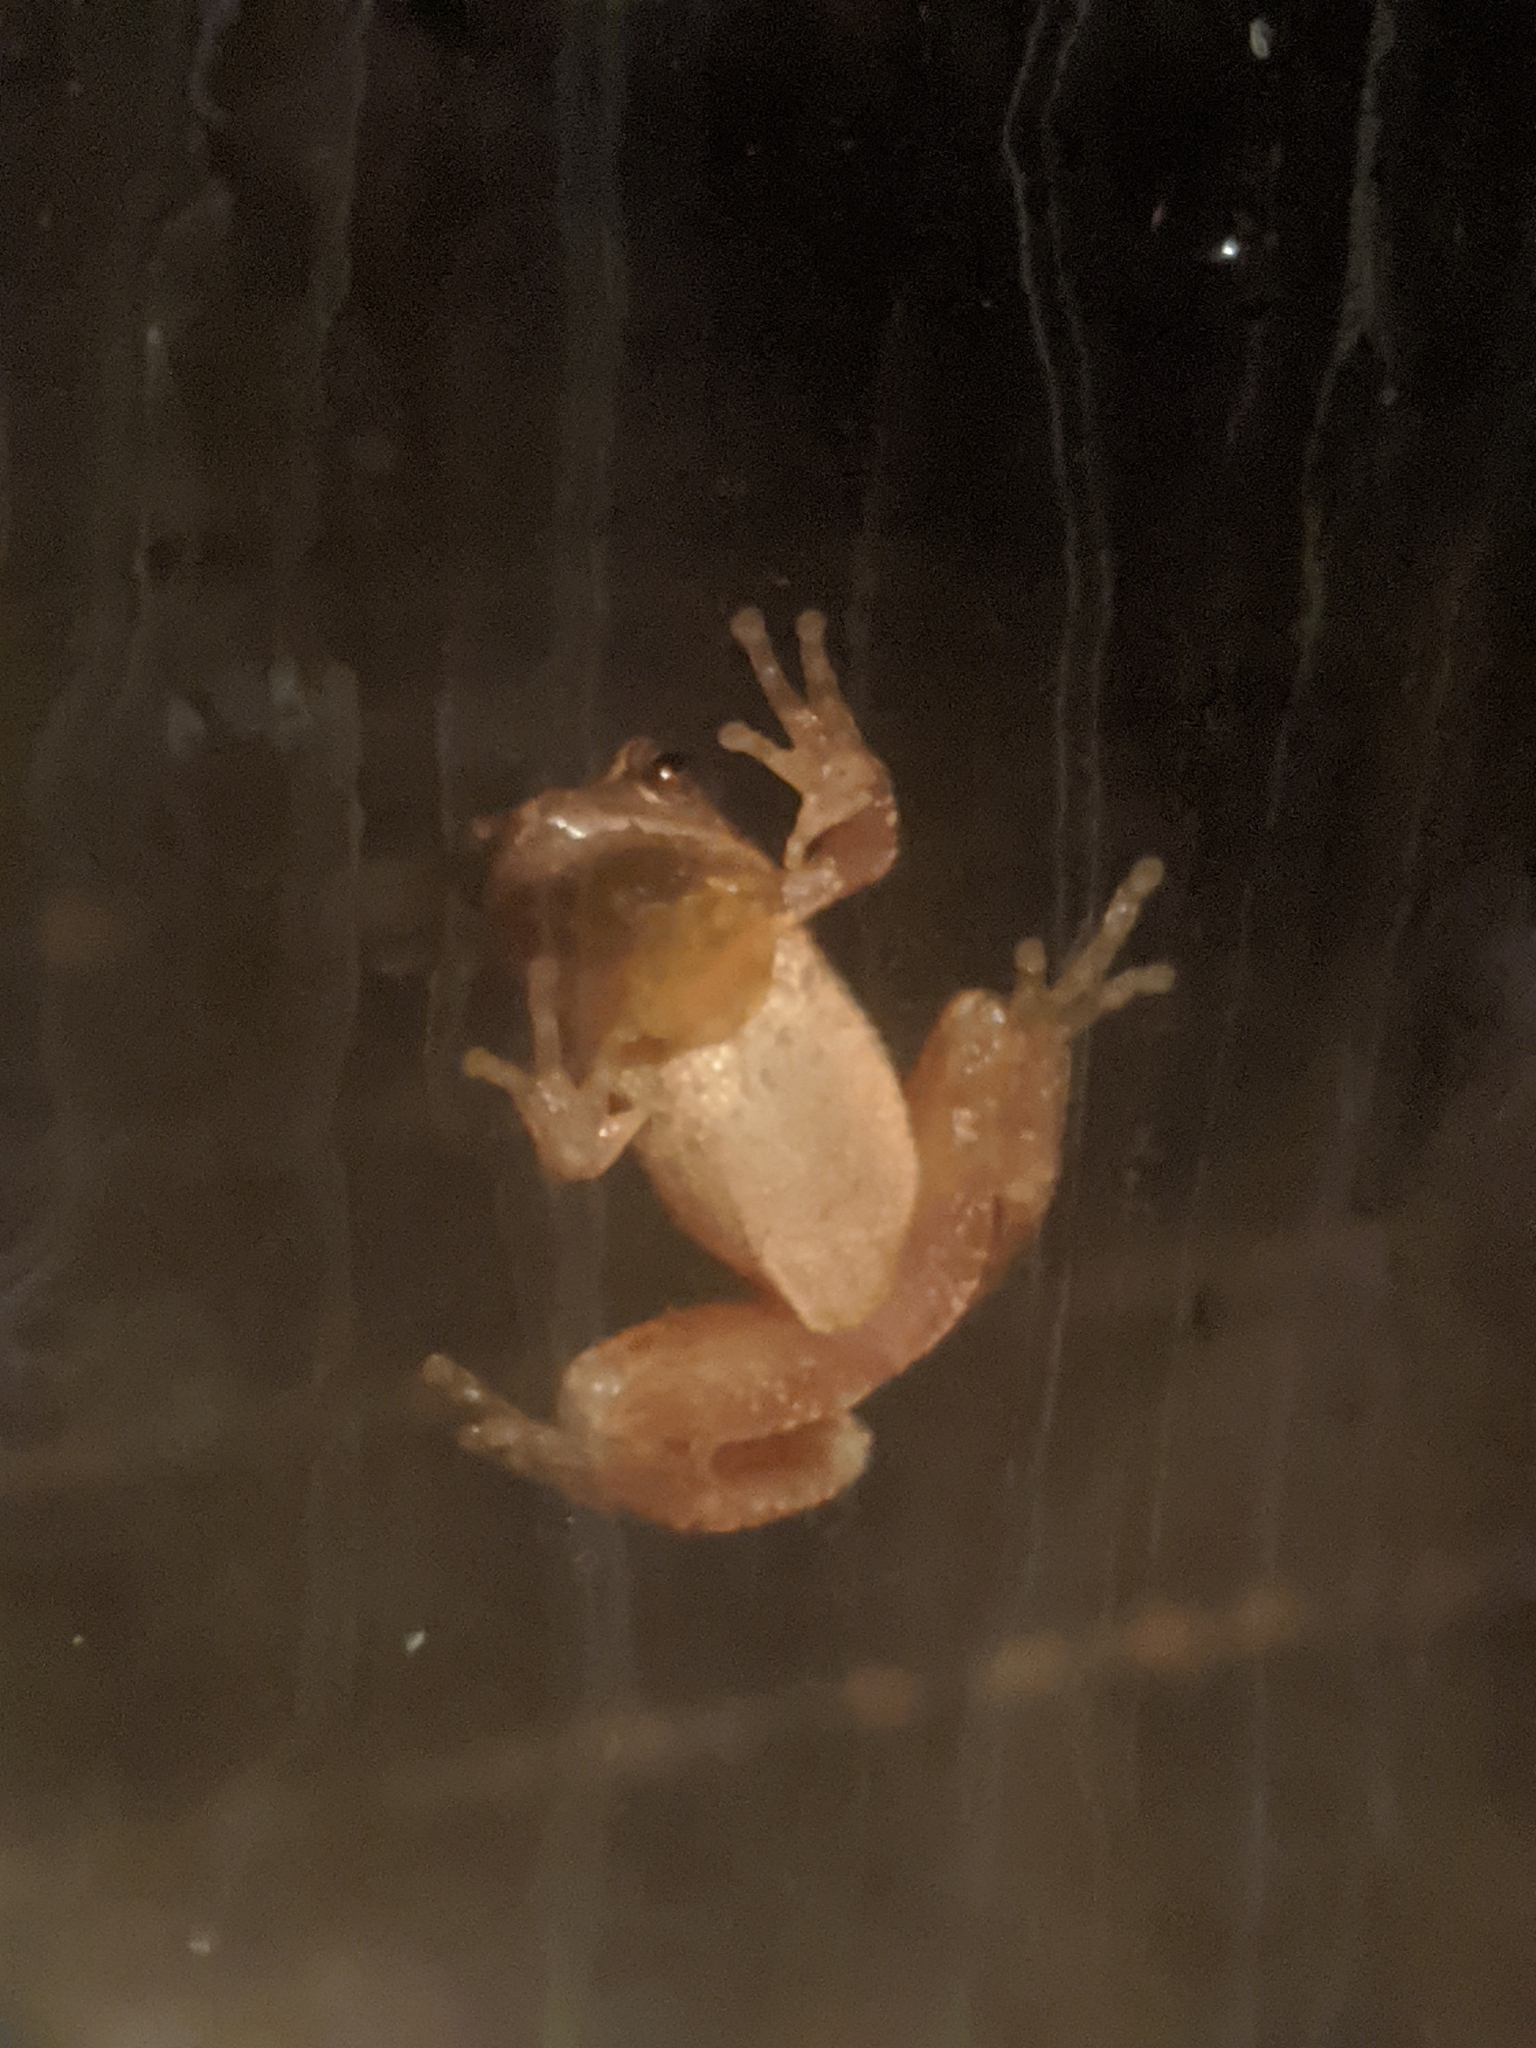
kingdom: Animalia
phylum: Chordata
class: Amphibia
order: Anura
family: Hylidae
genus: Pseudacris
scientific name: Pseudacris crucifer
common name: Spring peeper
